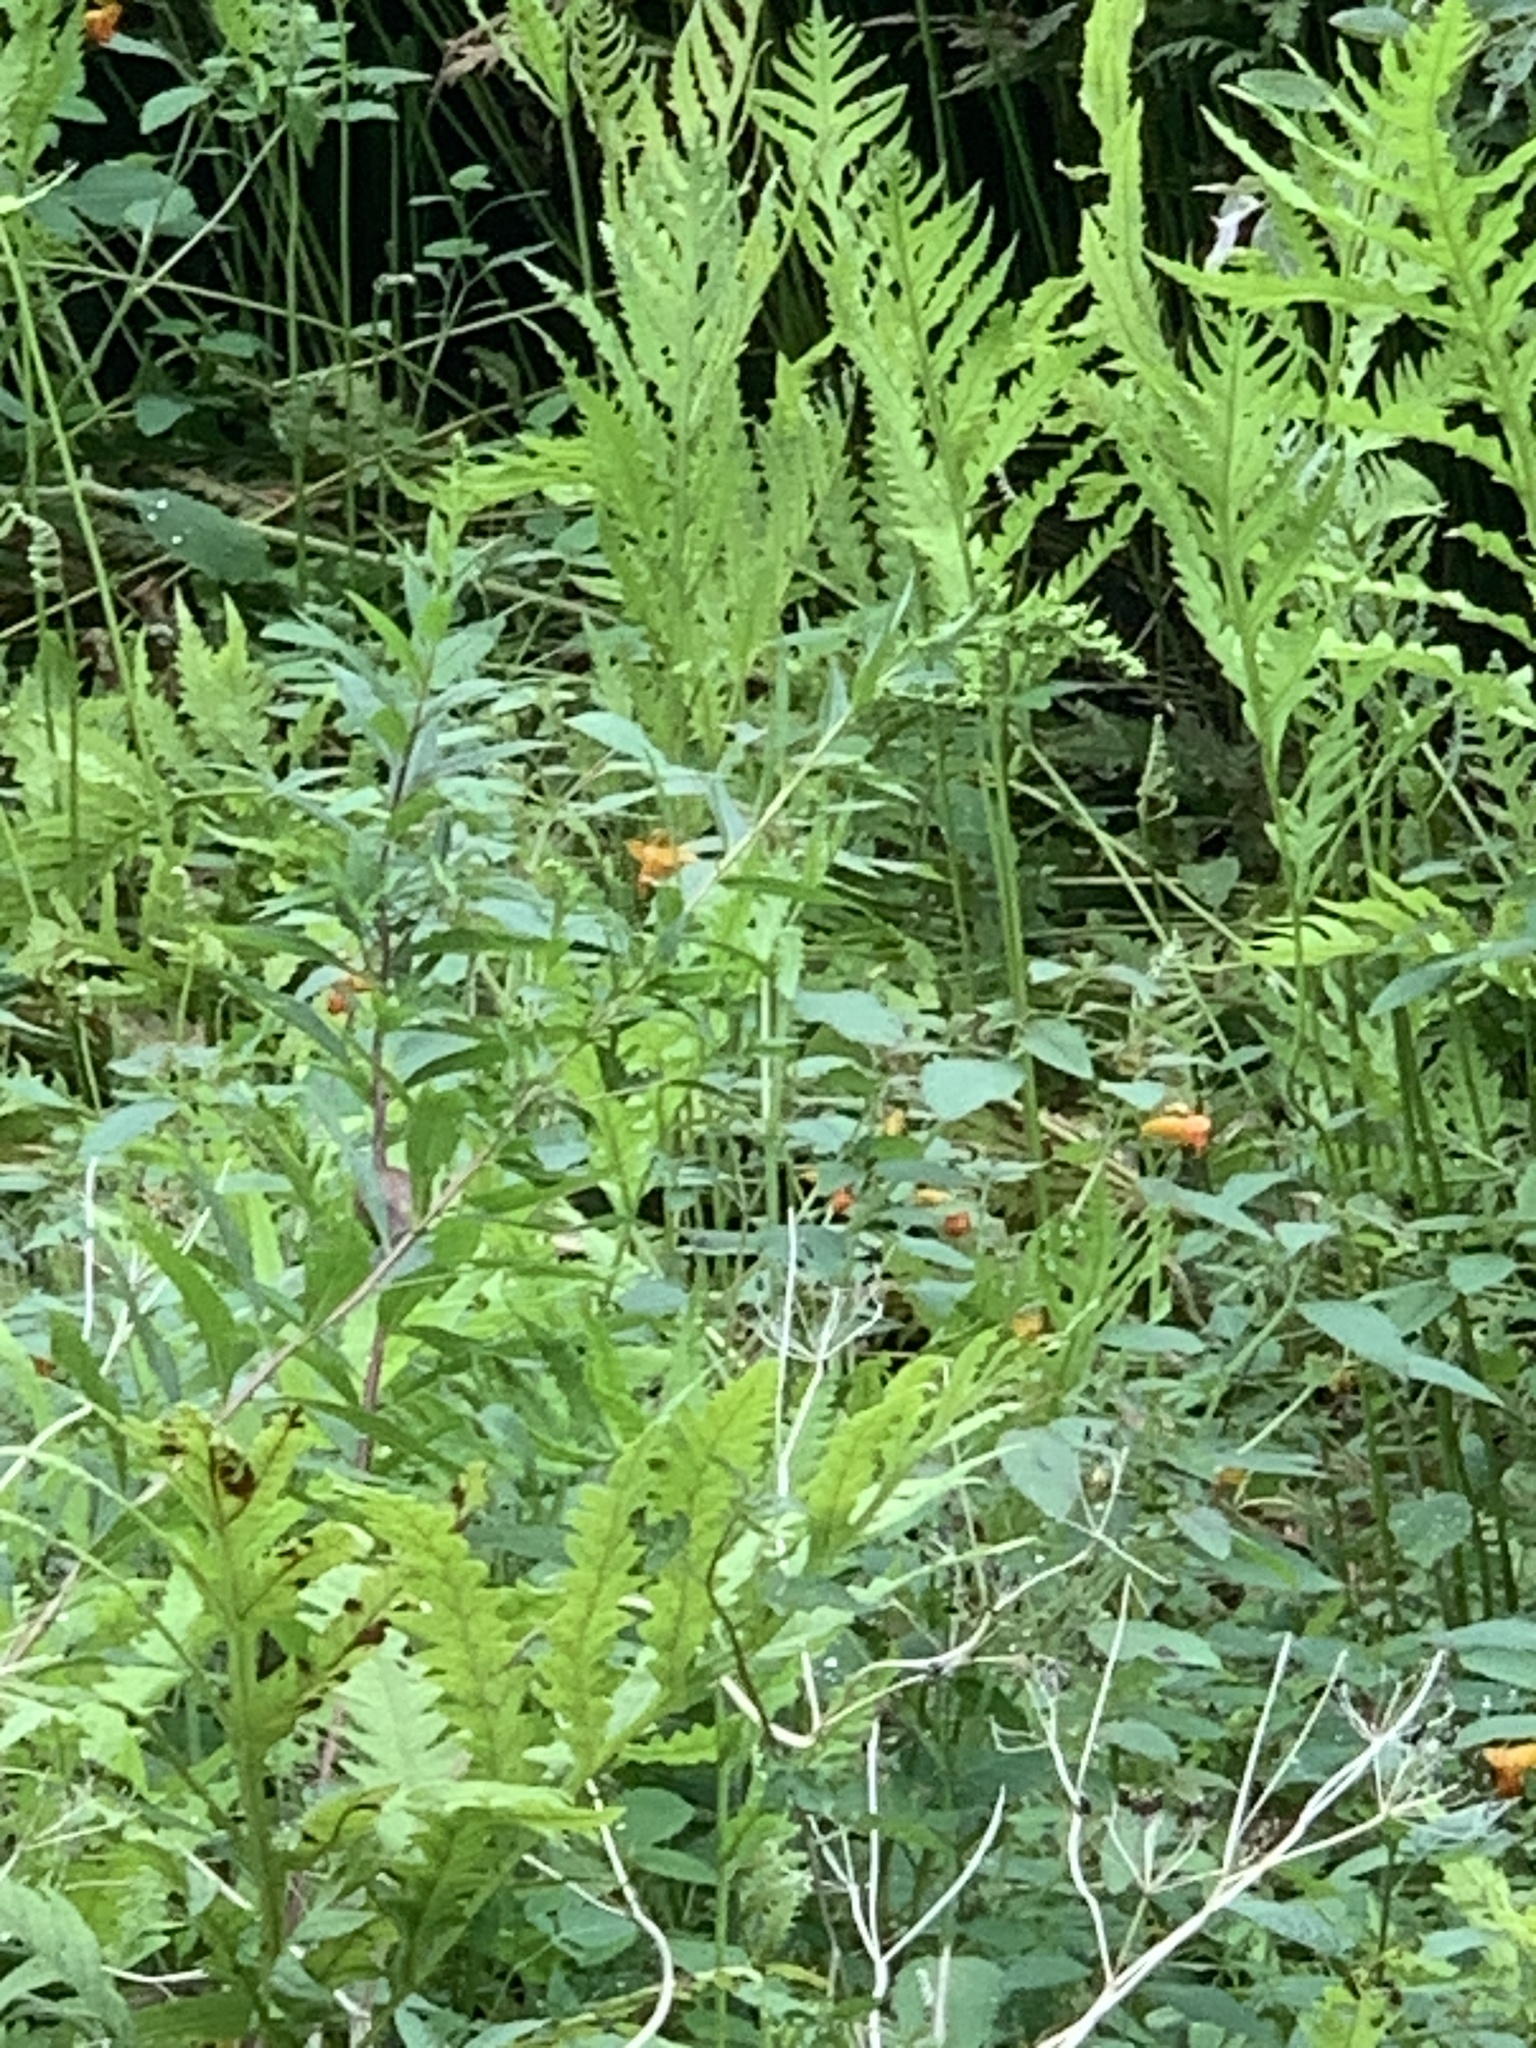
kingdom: Plantae
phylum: Tracheophyta
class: Magnoliopsida
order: Ericales
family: Balsaminaceae
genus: Impatiens
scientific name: Impatiens capensis
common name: Orange balsam
